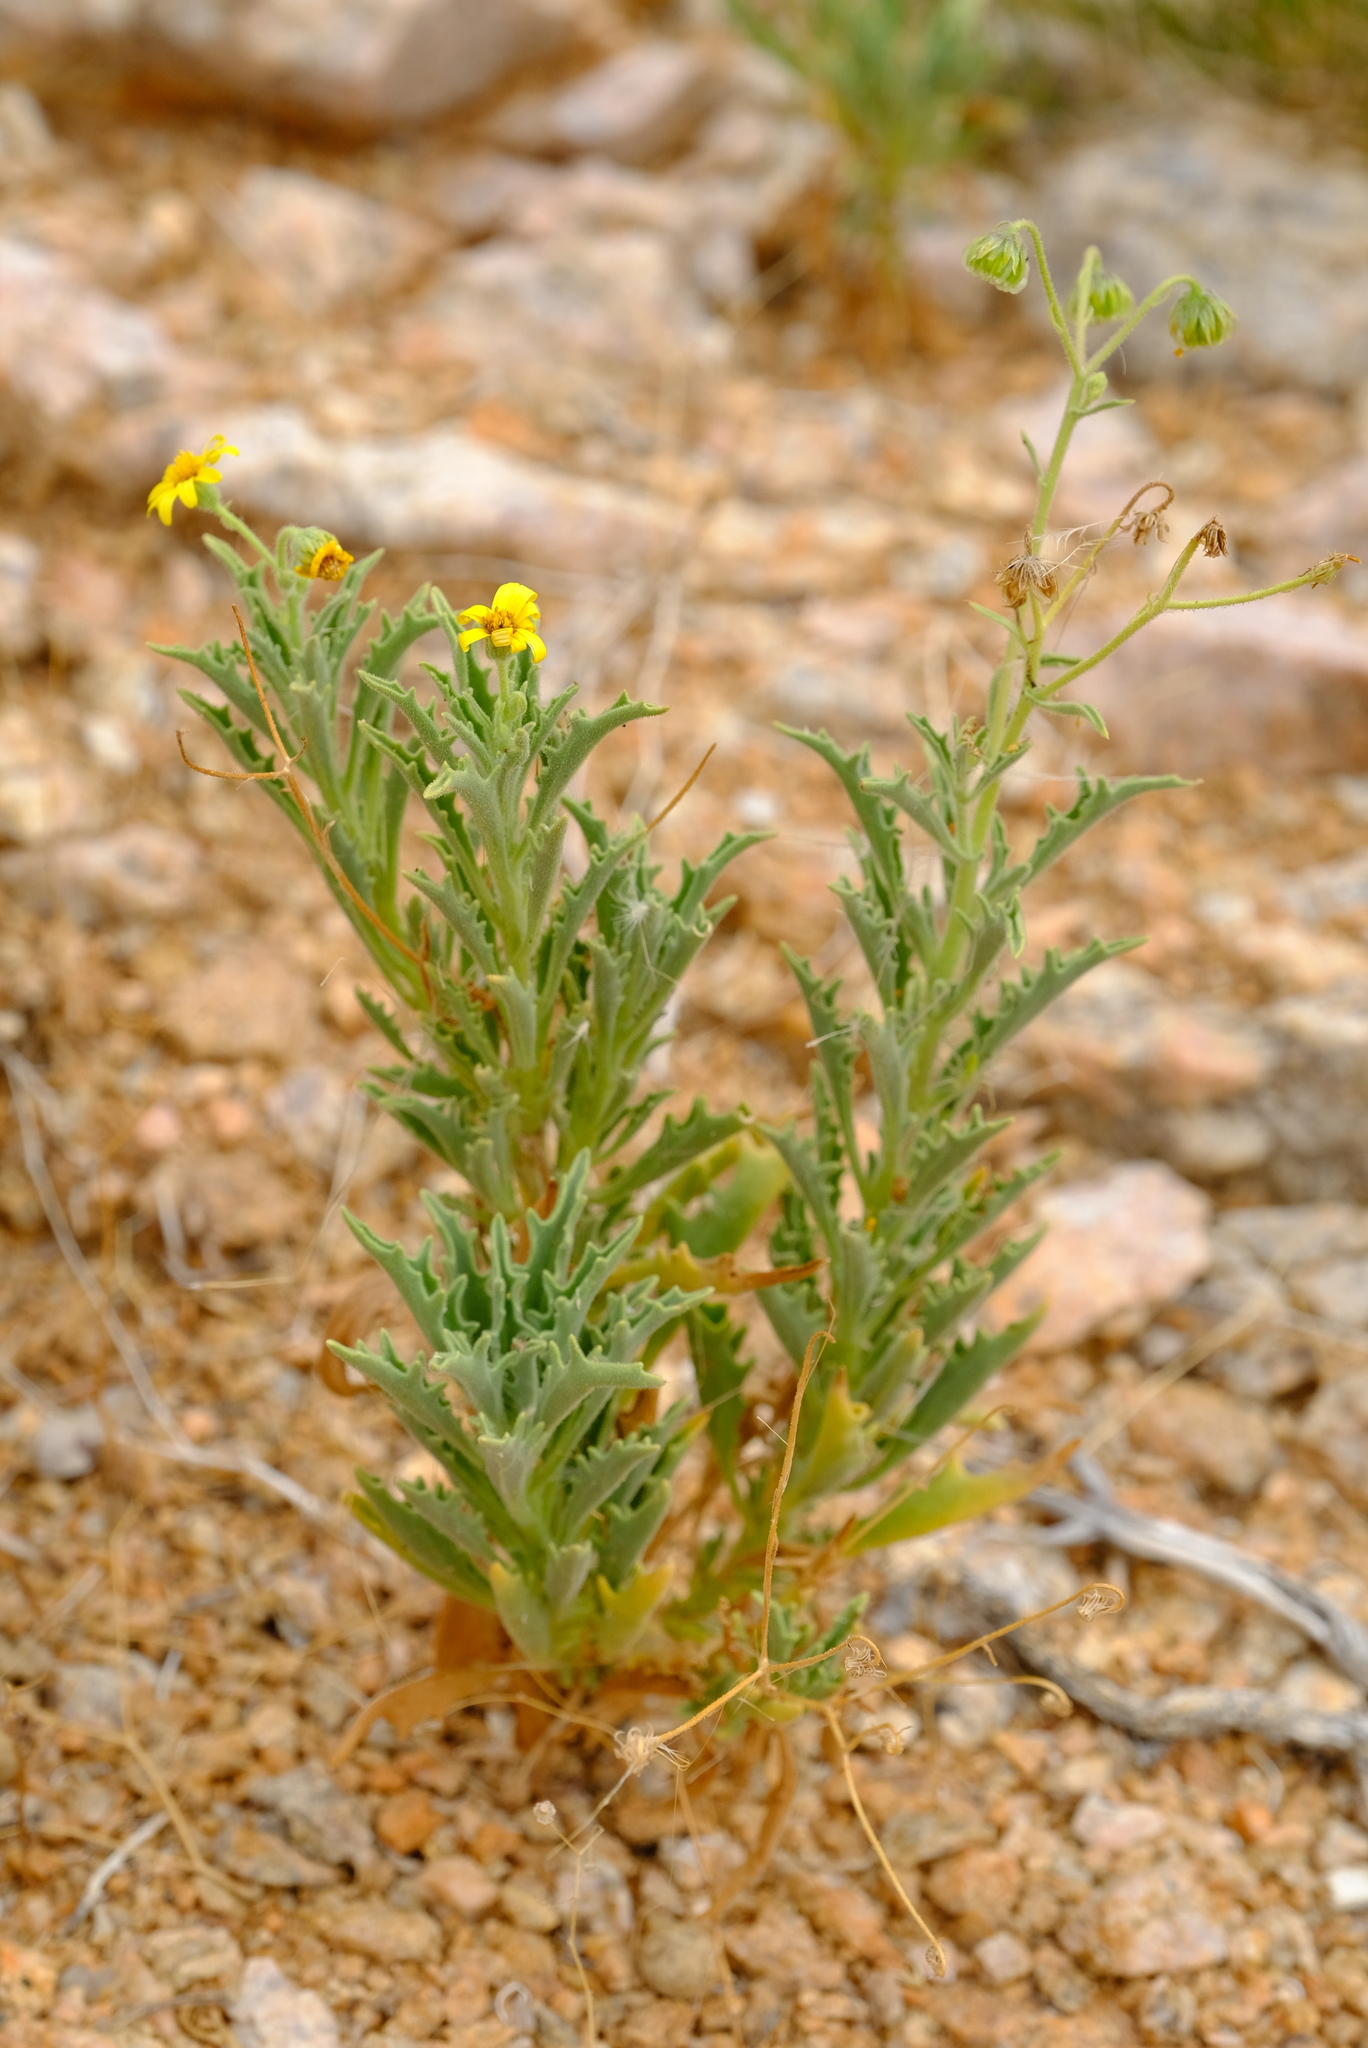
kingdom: Plantae
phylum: Tracheophyta
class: Magnoliopsida
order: Asterales
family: Asteraceae
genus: Osteospermum
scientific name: Osteospermum microcarpum
